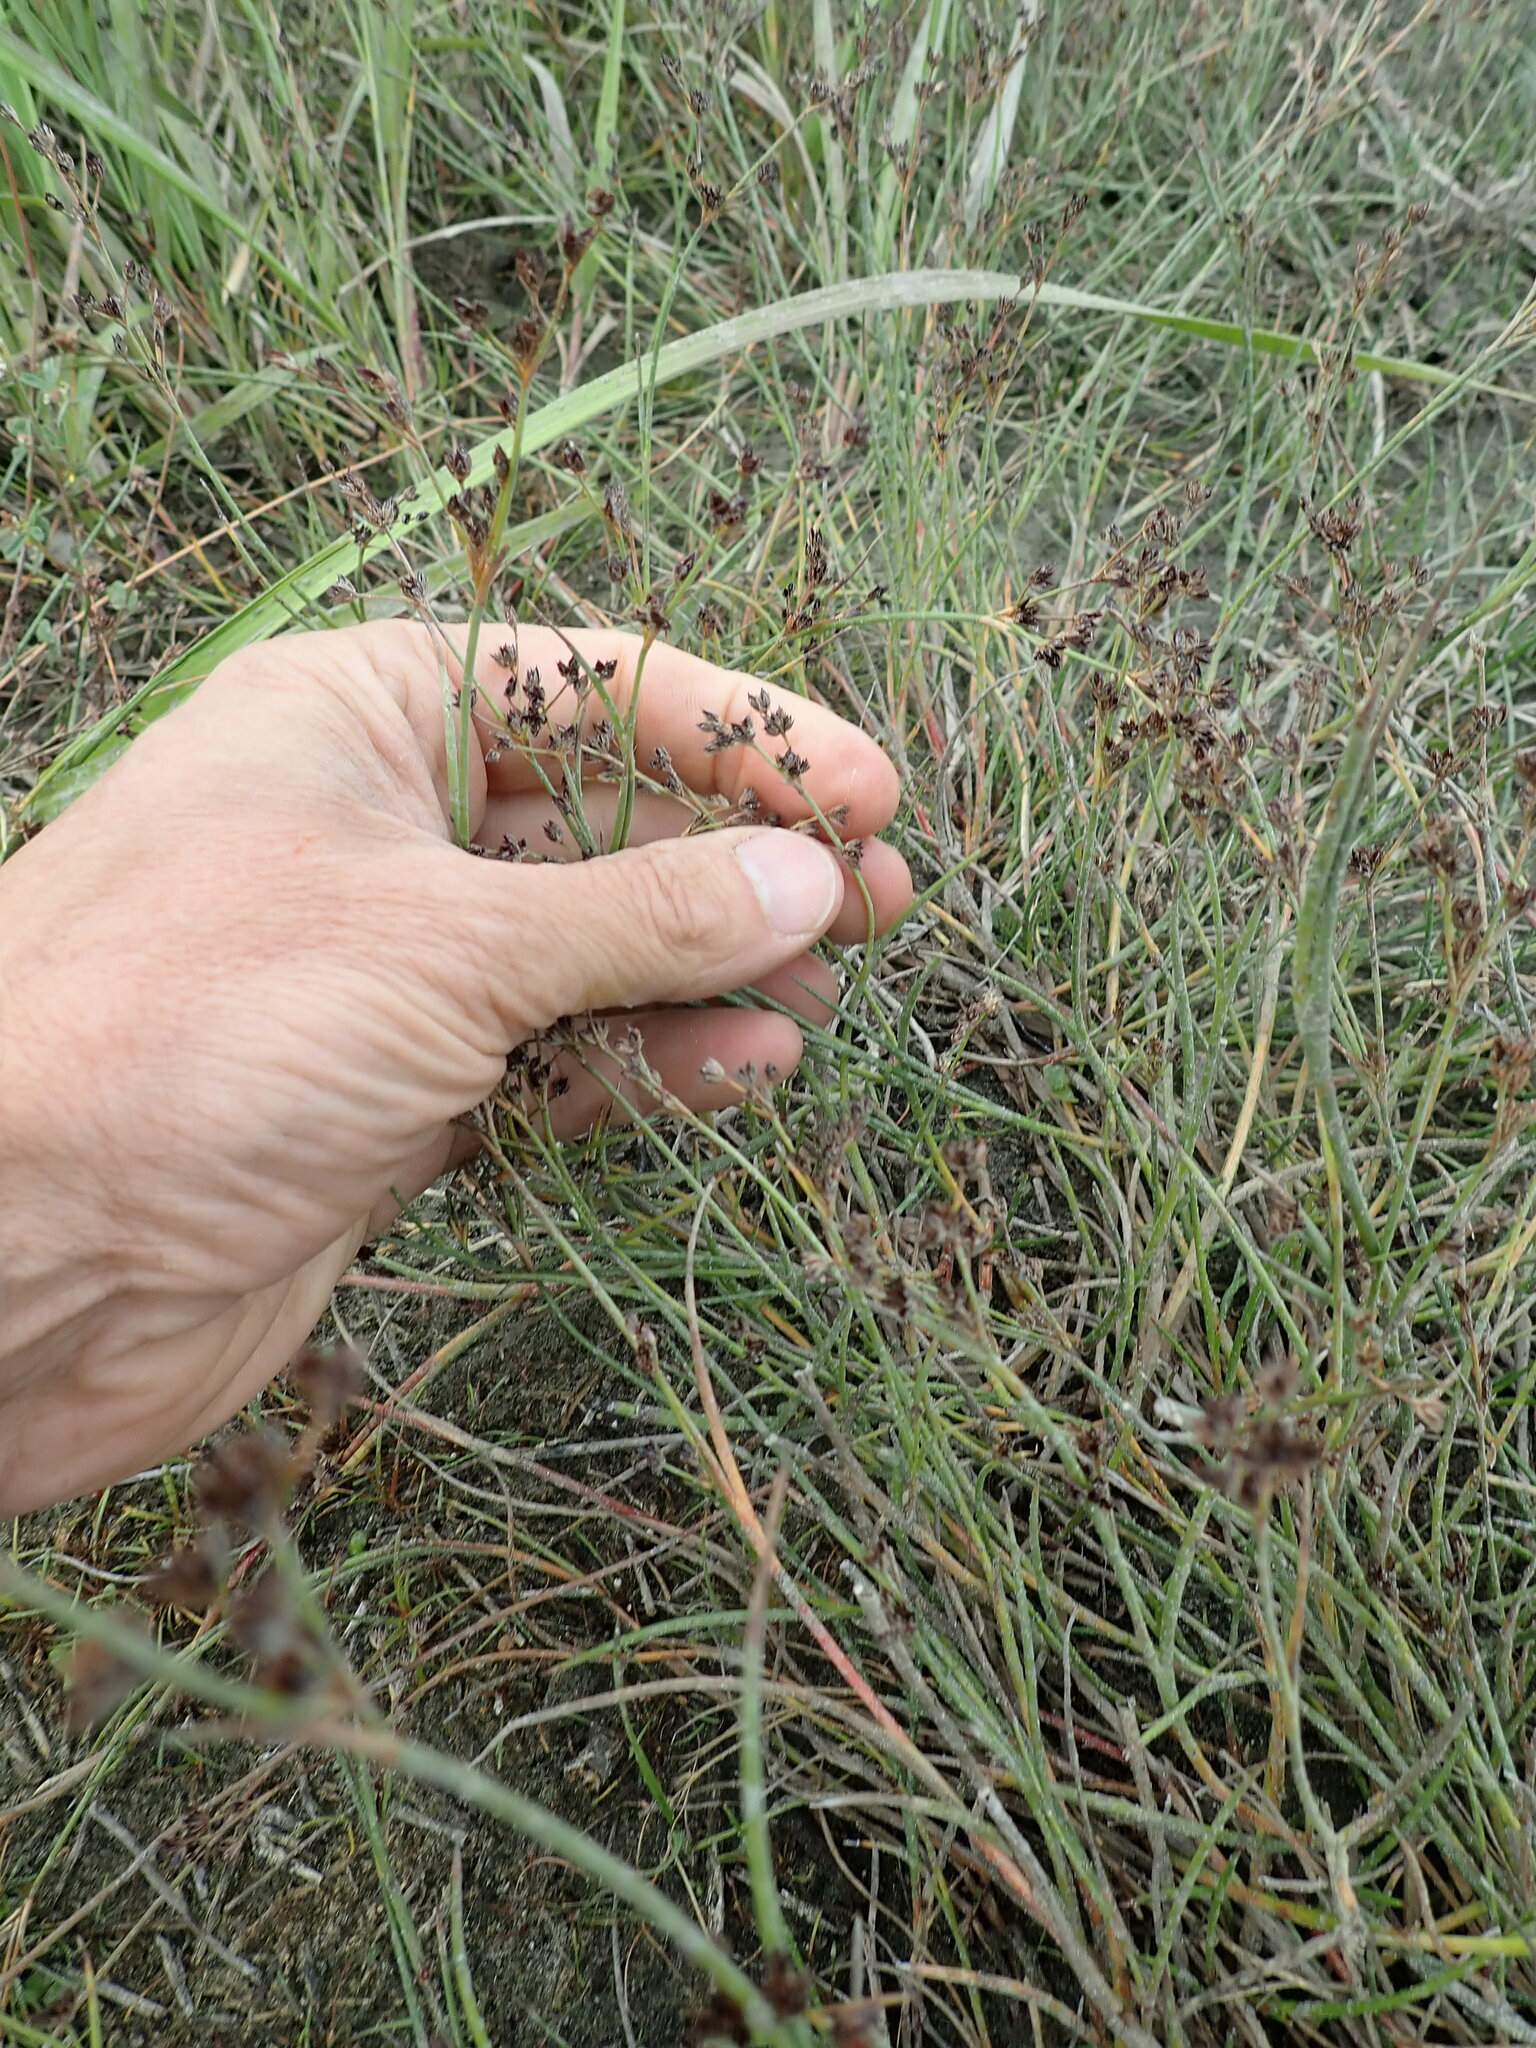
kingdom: Plantae
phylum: Tracheophyta
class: Liliopsida
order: Poales
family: Juncaceae
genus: Juncus
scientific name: Juncus articulatus
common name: Jointed rush
